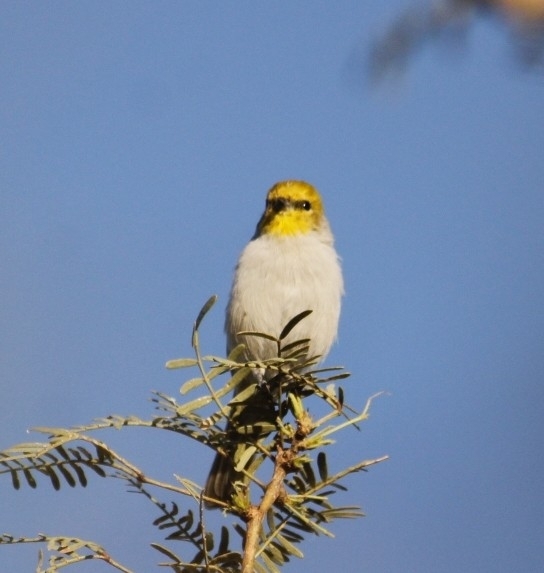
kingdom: Animalia
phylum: Chordata
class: Aves
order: Passeriformes
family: Remizidae
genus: Auriparus
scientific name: Auriparus flaviceps
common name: Verdin
